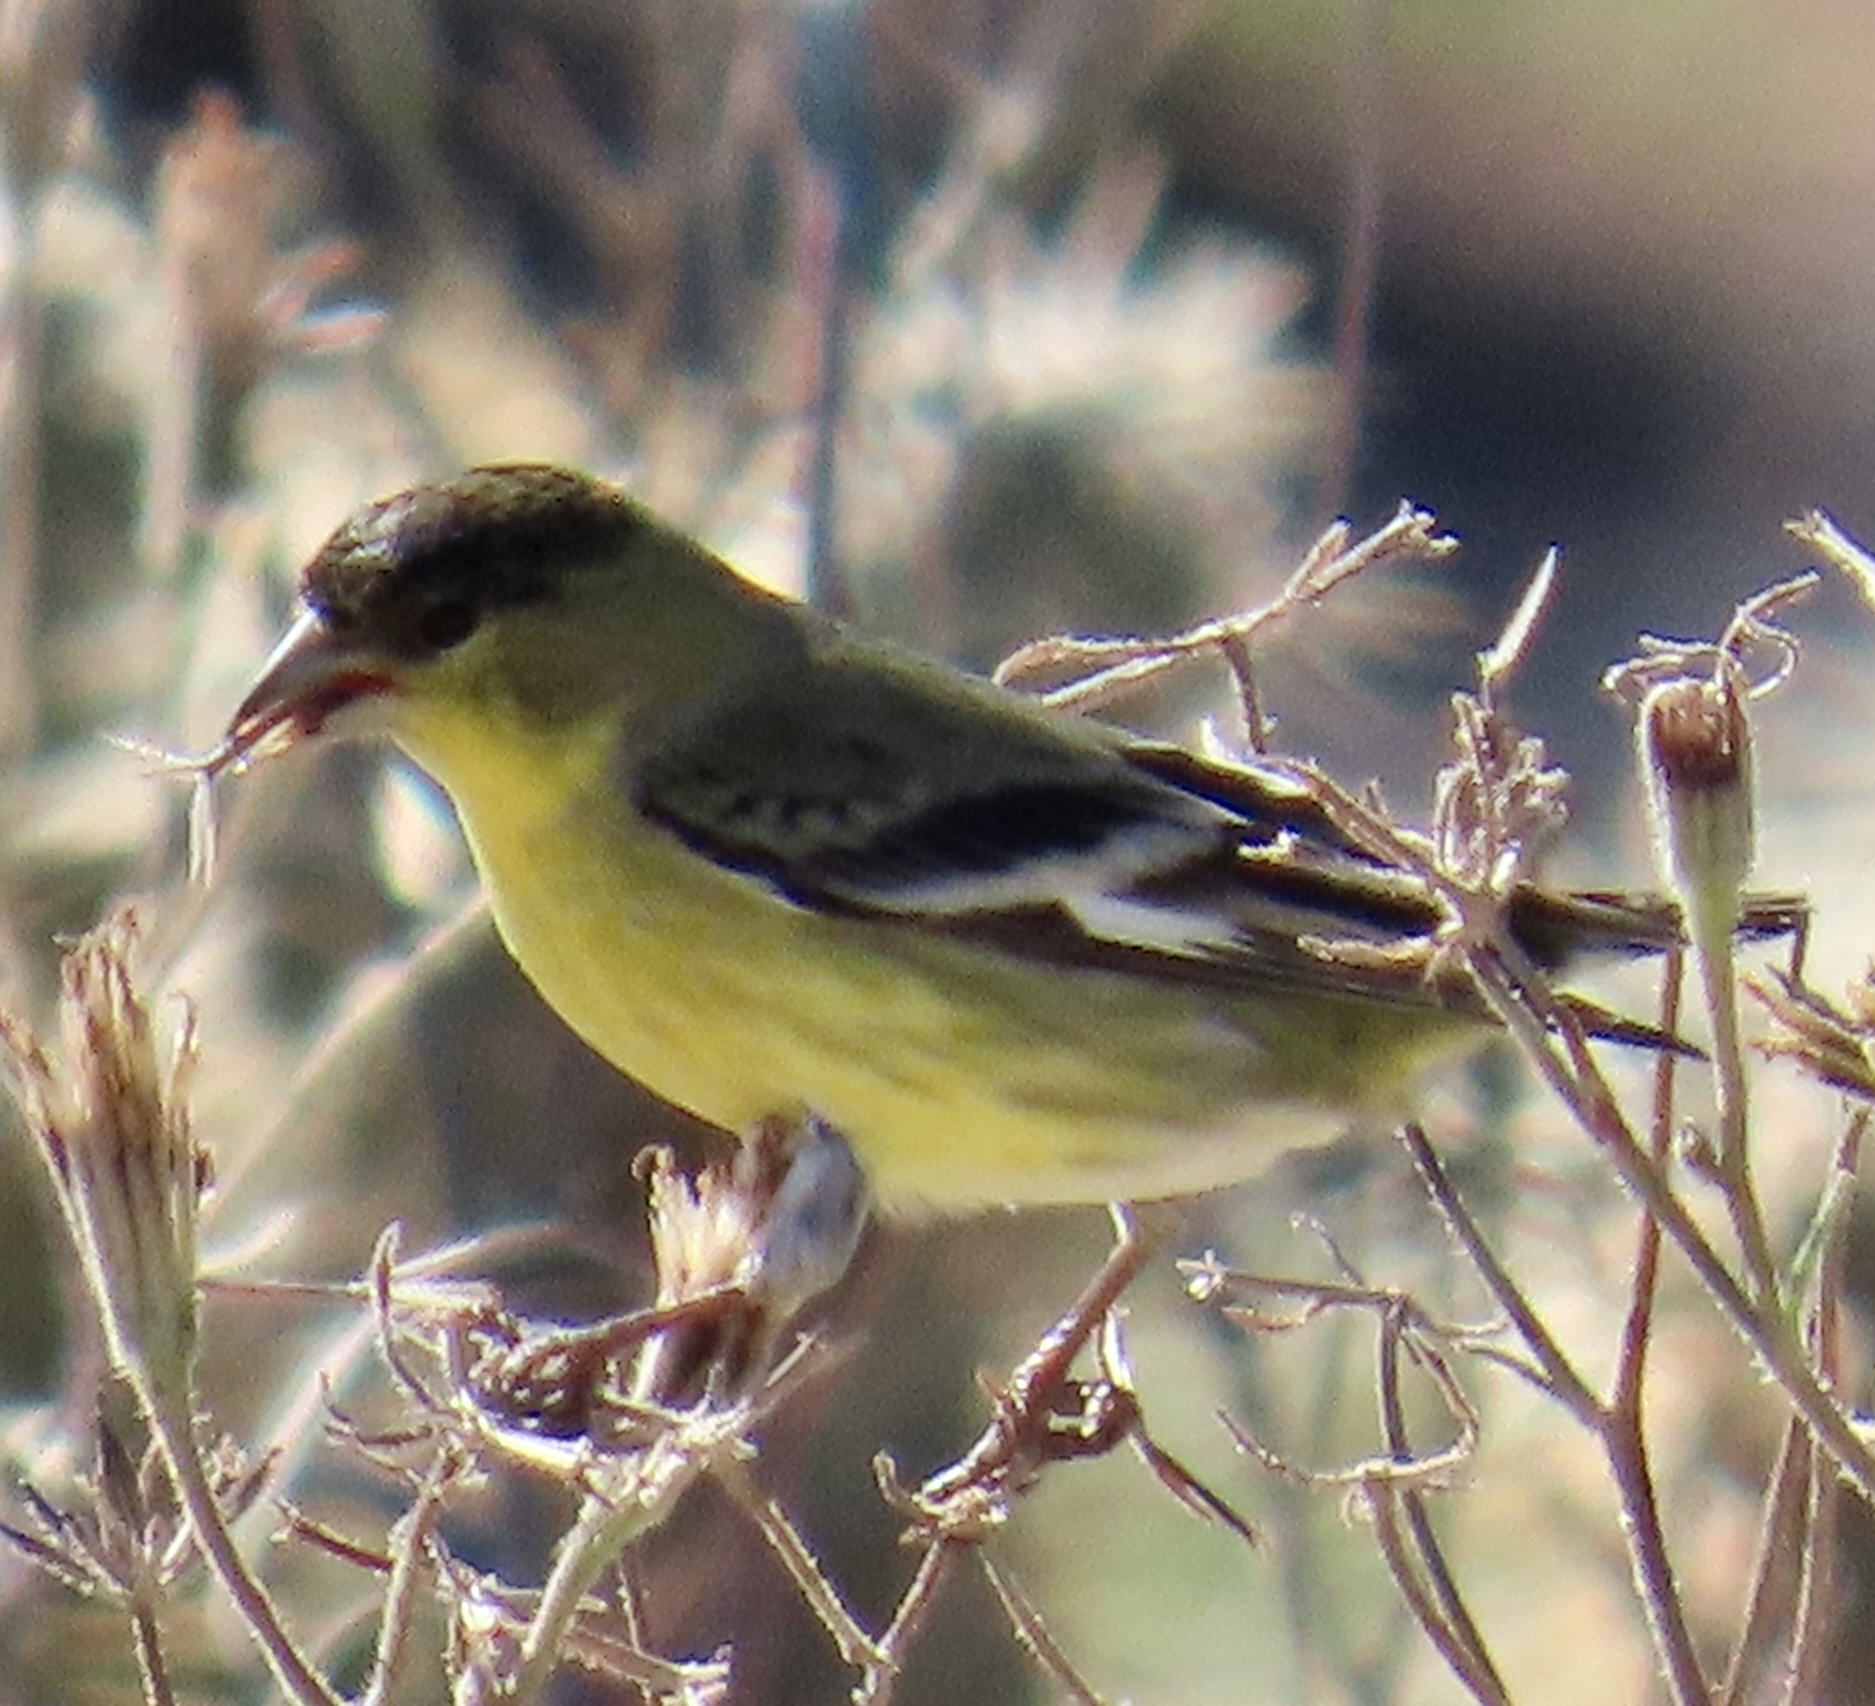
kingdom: Animalia
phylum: Chordata
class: Aves
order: Passeriformes
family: Fringillidae
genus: Spinus
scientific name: Spinus psaltria
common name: Lesser goldfinch
